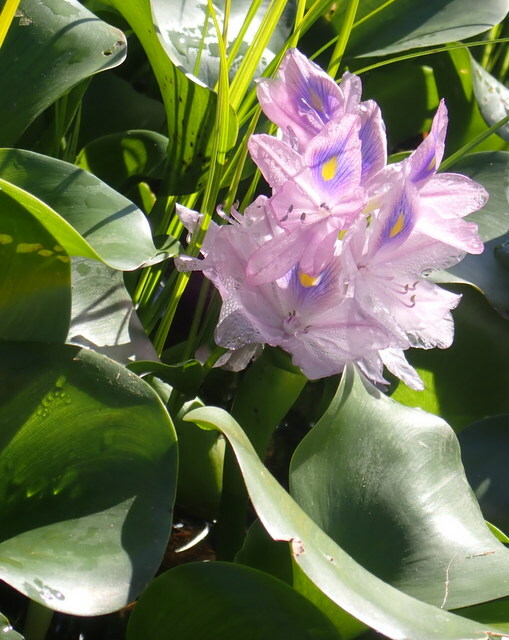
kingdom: Plantae
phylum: Tracheophyta
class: Liliopsida
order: Commelinales
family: Pontederiaceae
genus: Pontederia
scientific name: Pontederia crassipes
